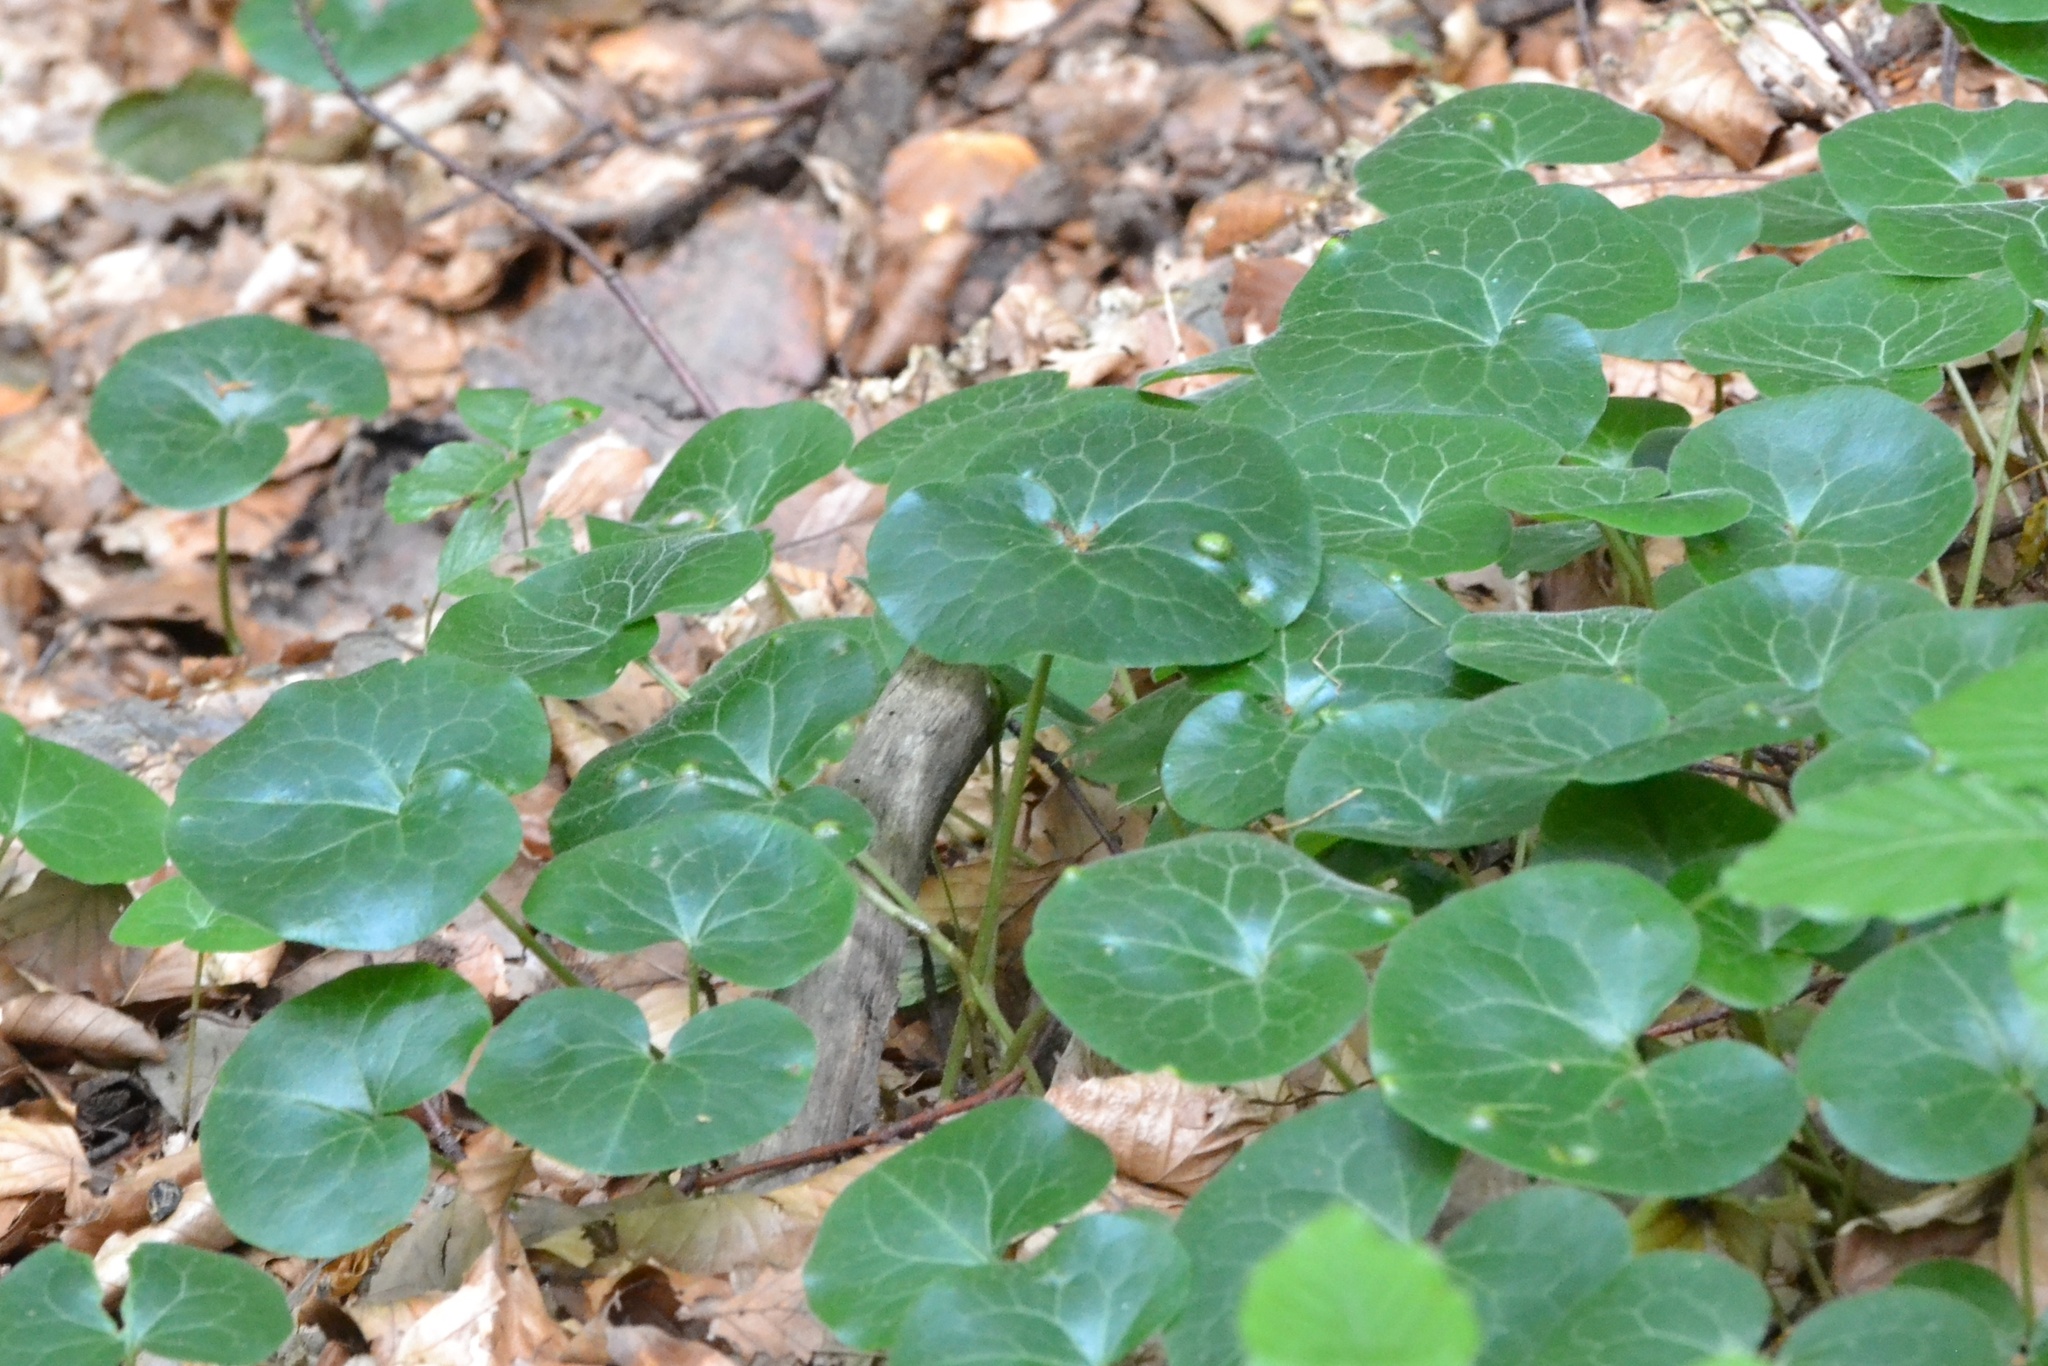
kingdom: Plantae
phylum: Tracheophyta
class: Magnoliopsida
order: Piperales
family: Aristolochiaceae
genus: Asarum
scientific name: Asarum europaeum
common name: Asarabacca
